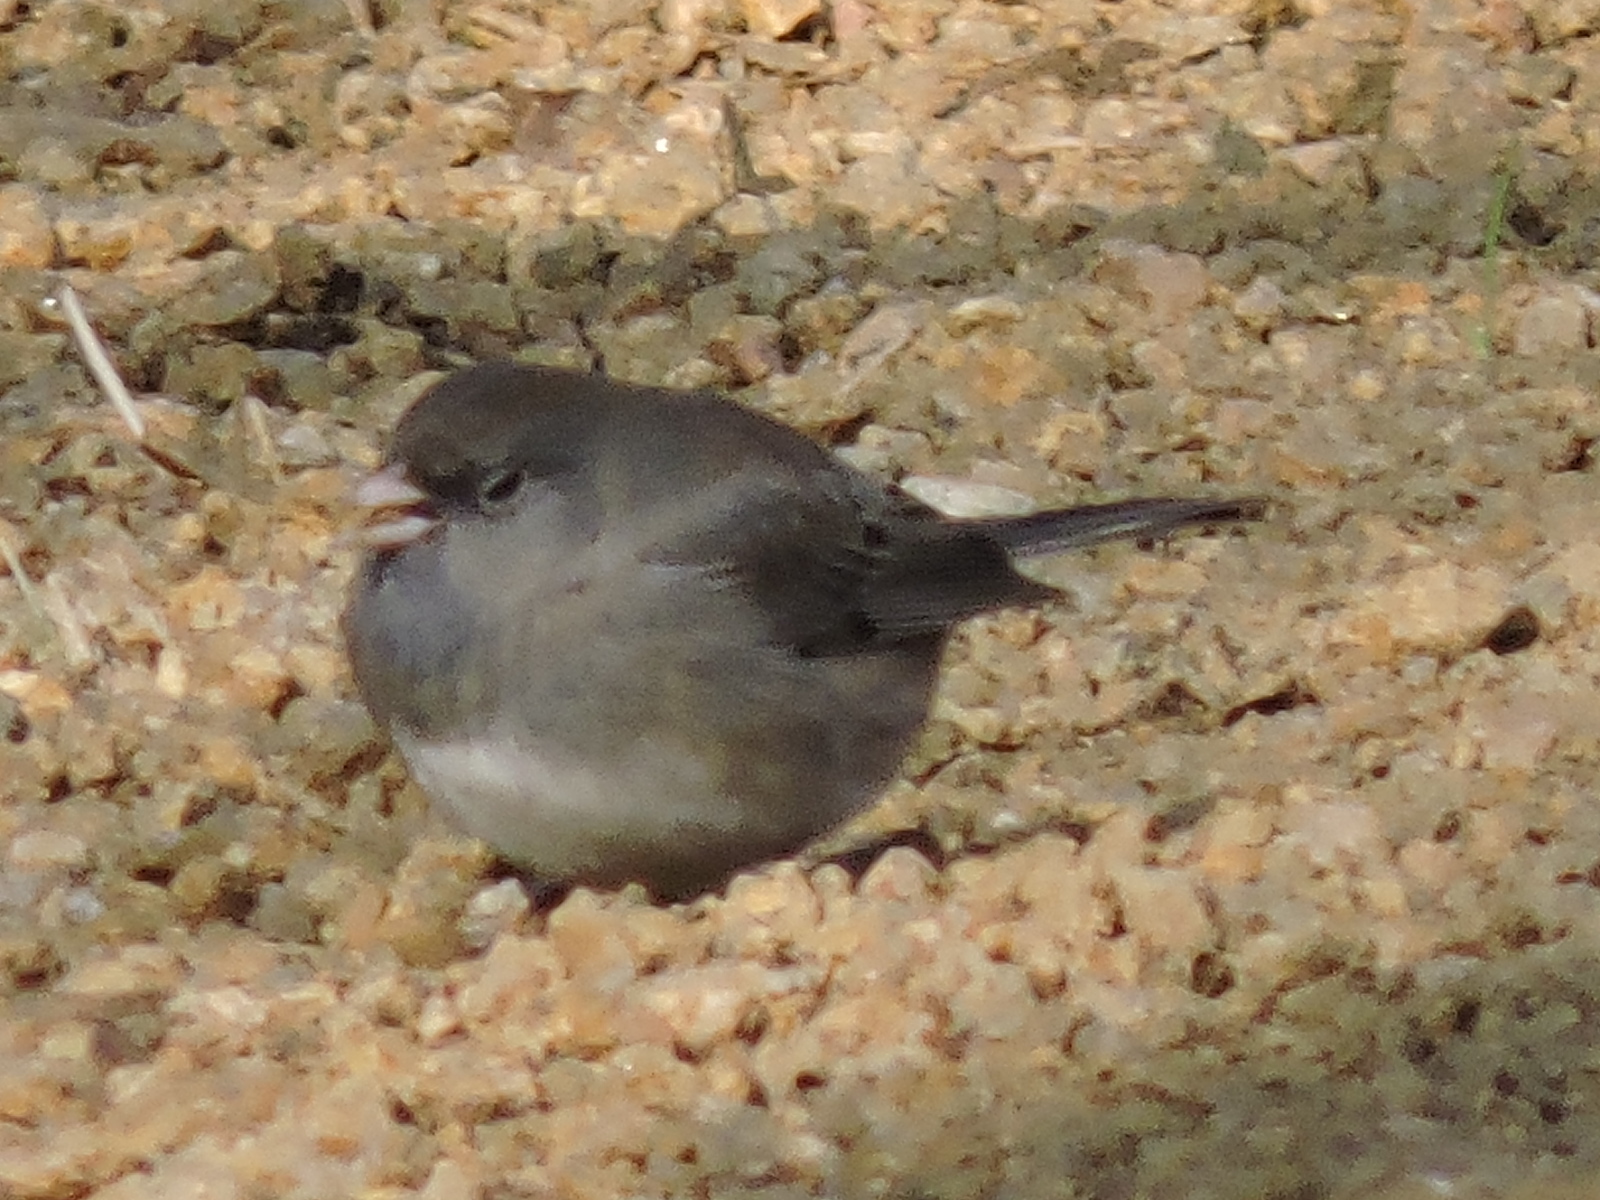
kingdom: Animalia
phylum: Chordata
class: Aves
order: Passeriformes
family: Passerellidae
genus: Junco
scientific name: Junco hyemalis
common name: Dark-eyed junco
